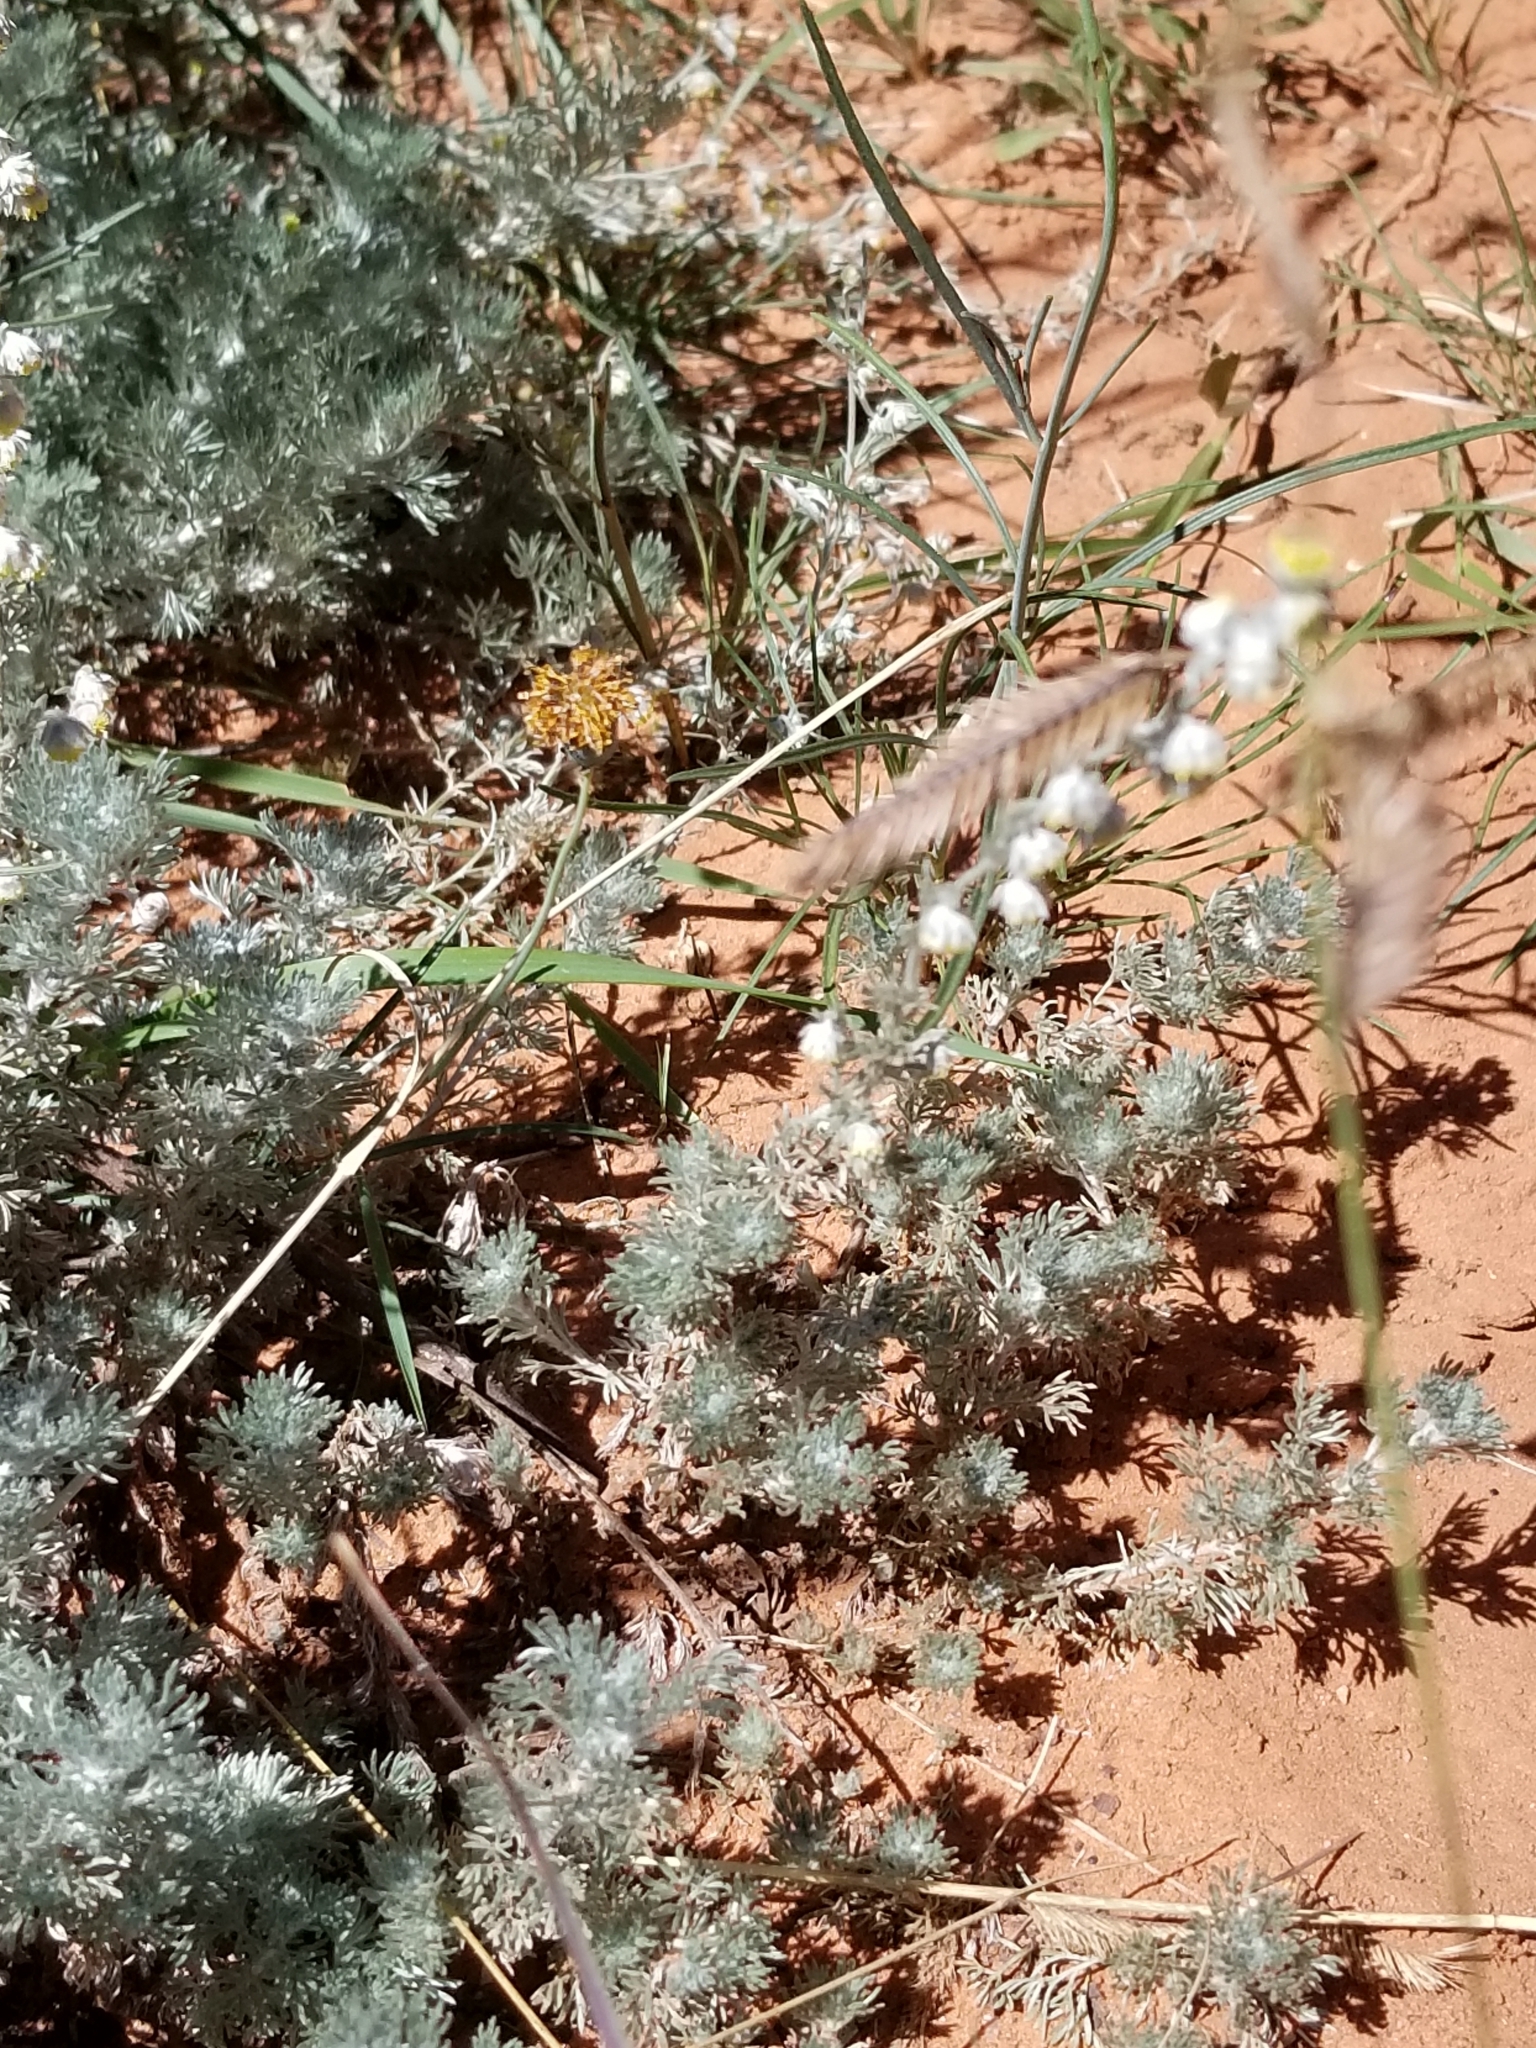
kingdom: Plantae
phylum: Tracheophyta
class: Magnoliopsida
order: Asterales
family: Asteraceae
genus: Artemisia
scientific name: Artemisia frigida
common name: Prairie sagewort
